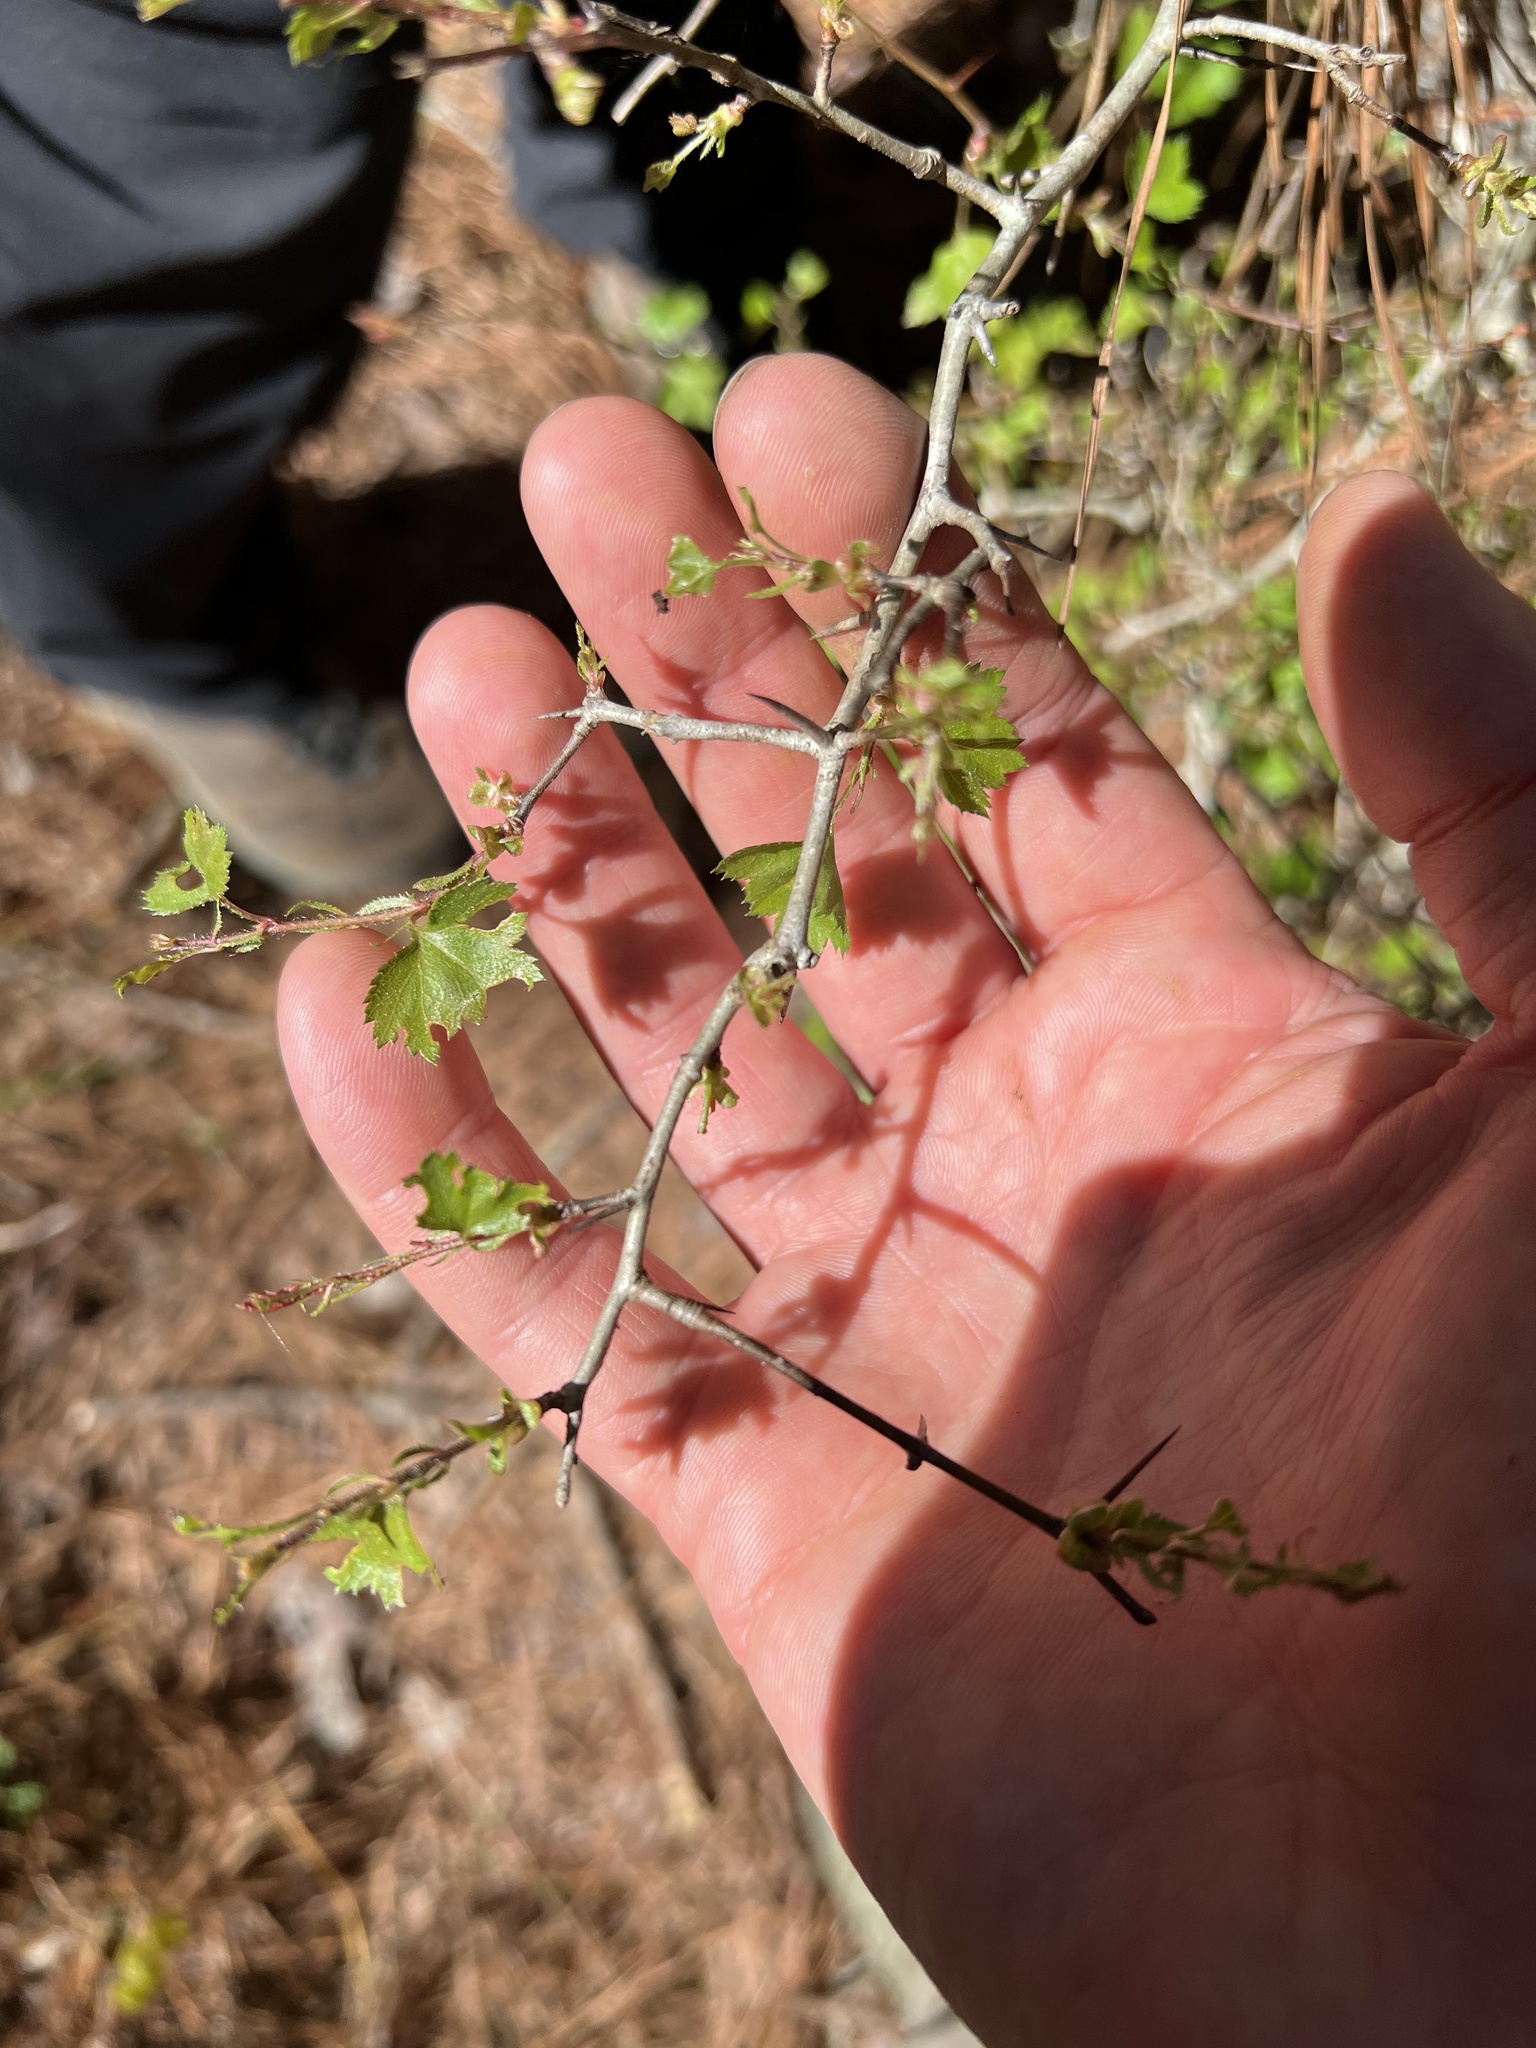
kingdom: Plantae
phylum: Tracheophyta
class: Magnoliopsida
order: Rosales
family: Rosaceae
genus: Crataegus
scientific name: Crataegus marshallii
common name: Parsley-hawthorn
